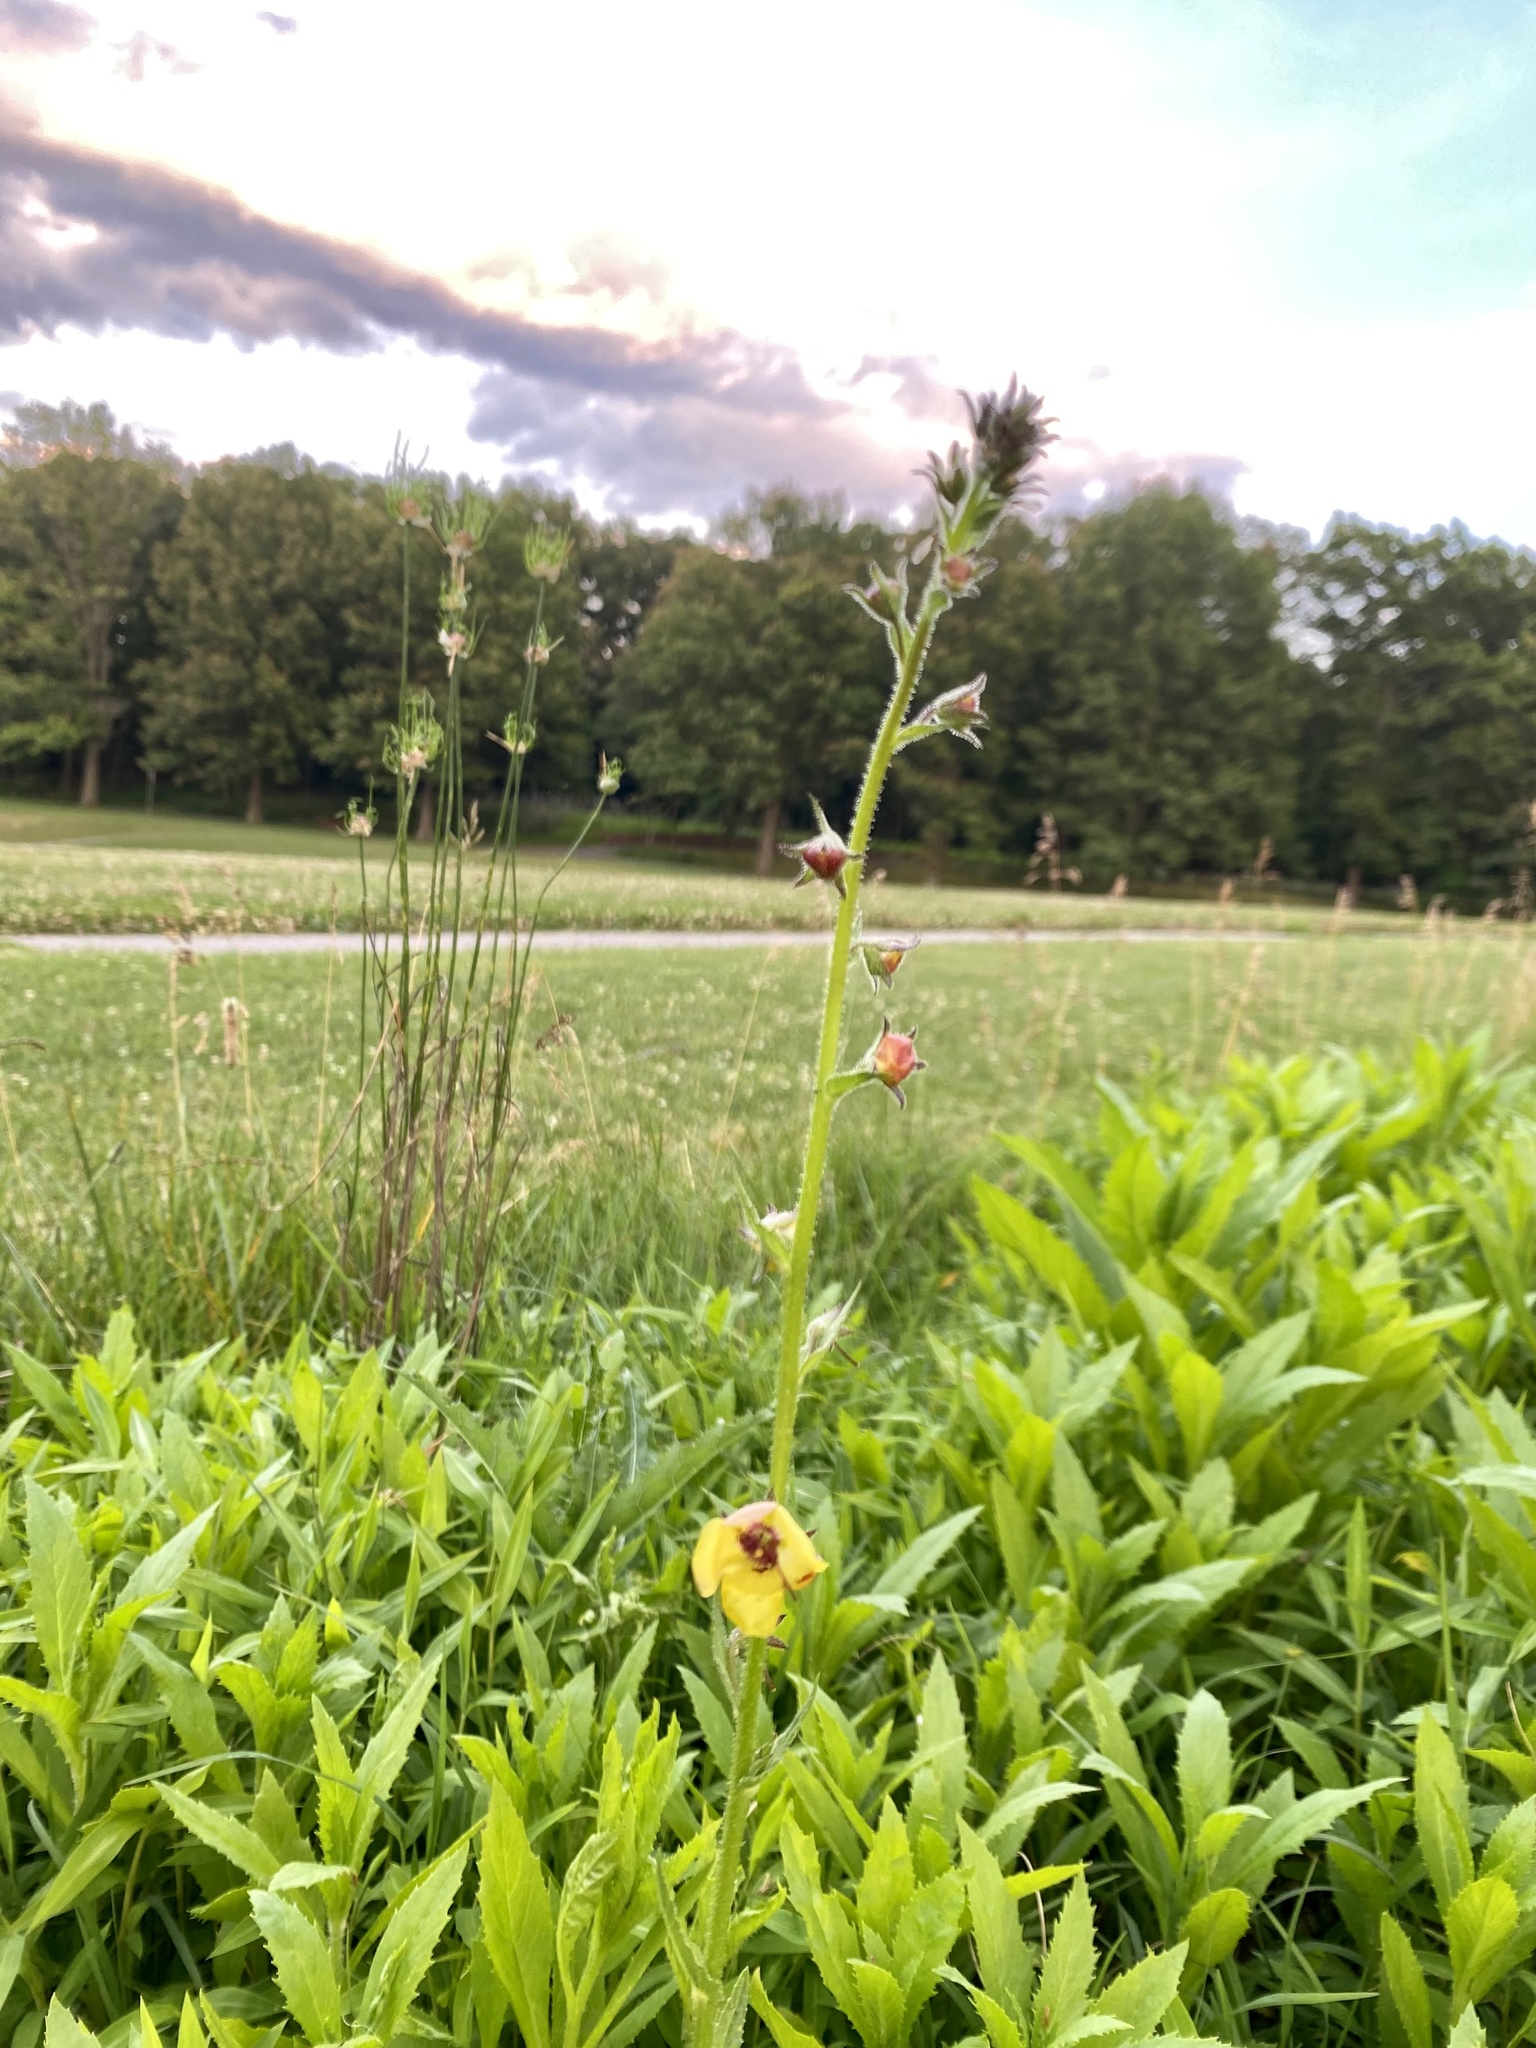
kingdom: Plantae
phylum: Tracheophyta
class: Magnoliopsida
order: Lamiales
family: Scrophulariaceae
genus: Verbascum
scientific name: Verbascum blattaria
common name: Moth mullein
